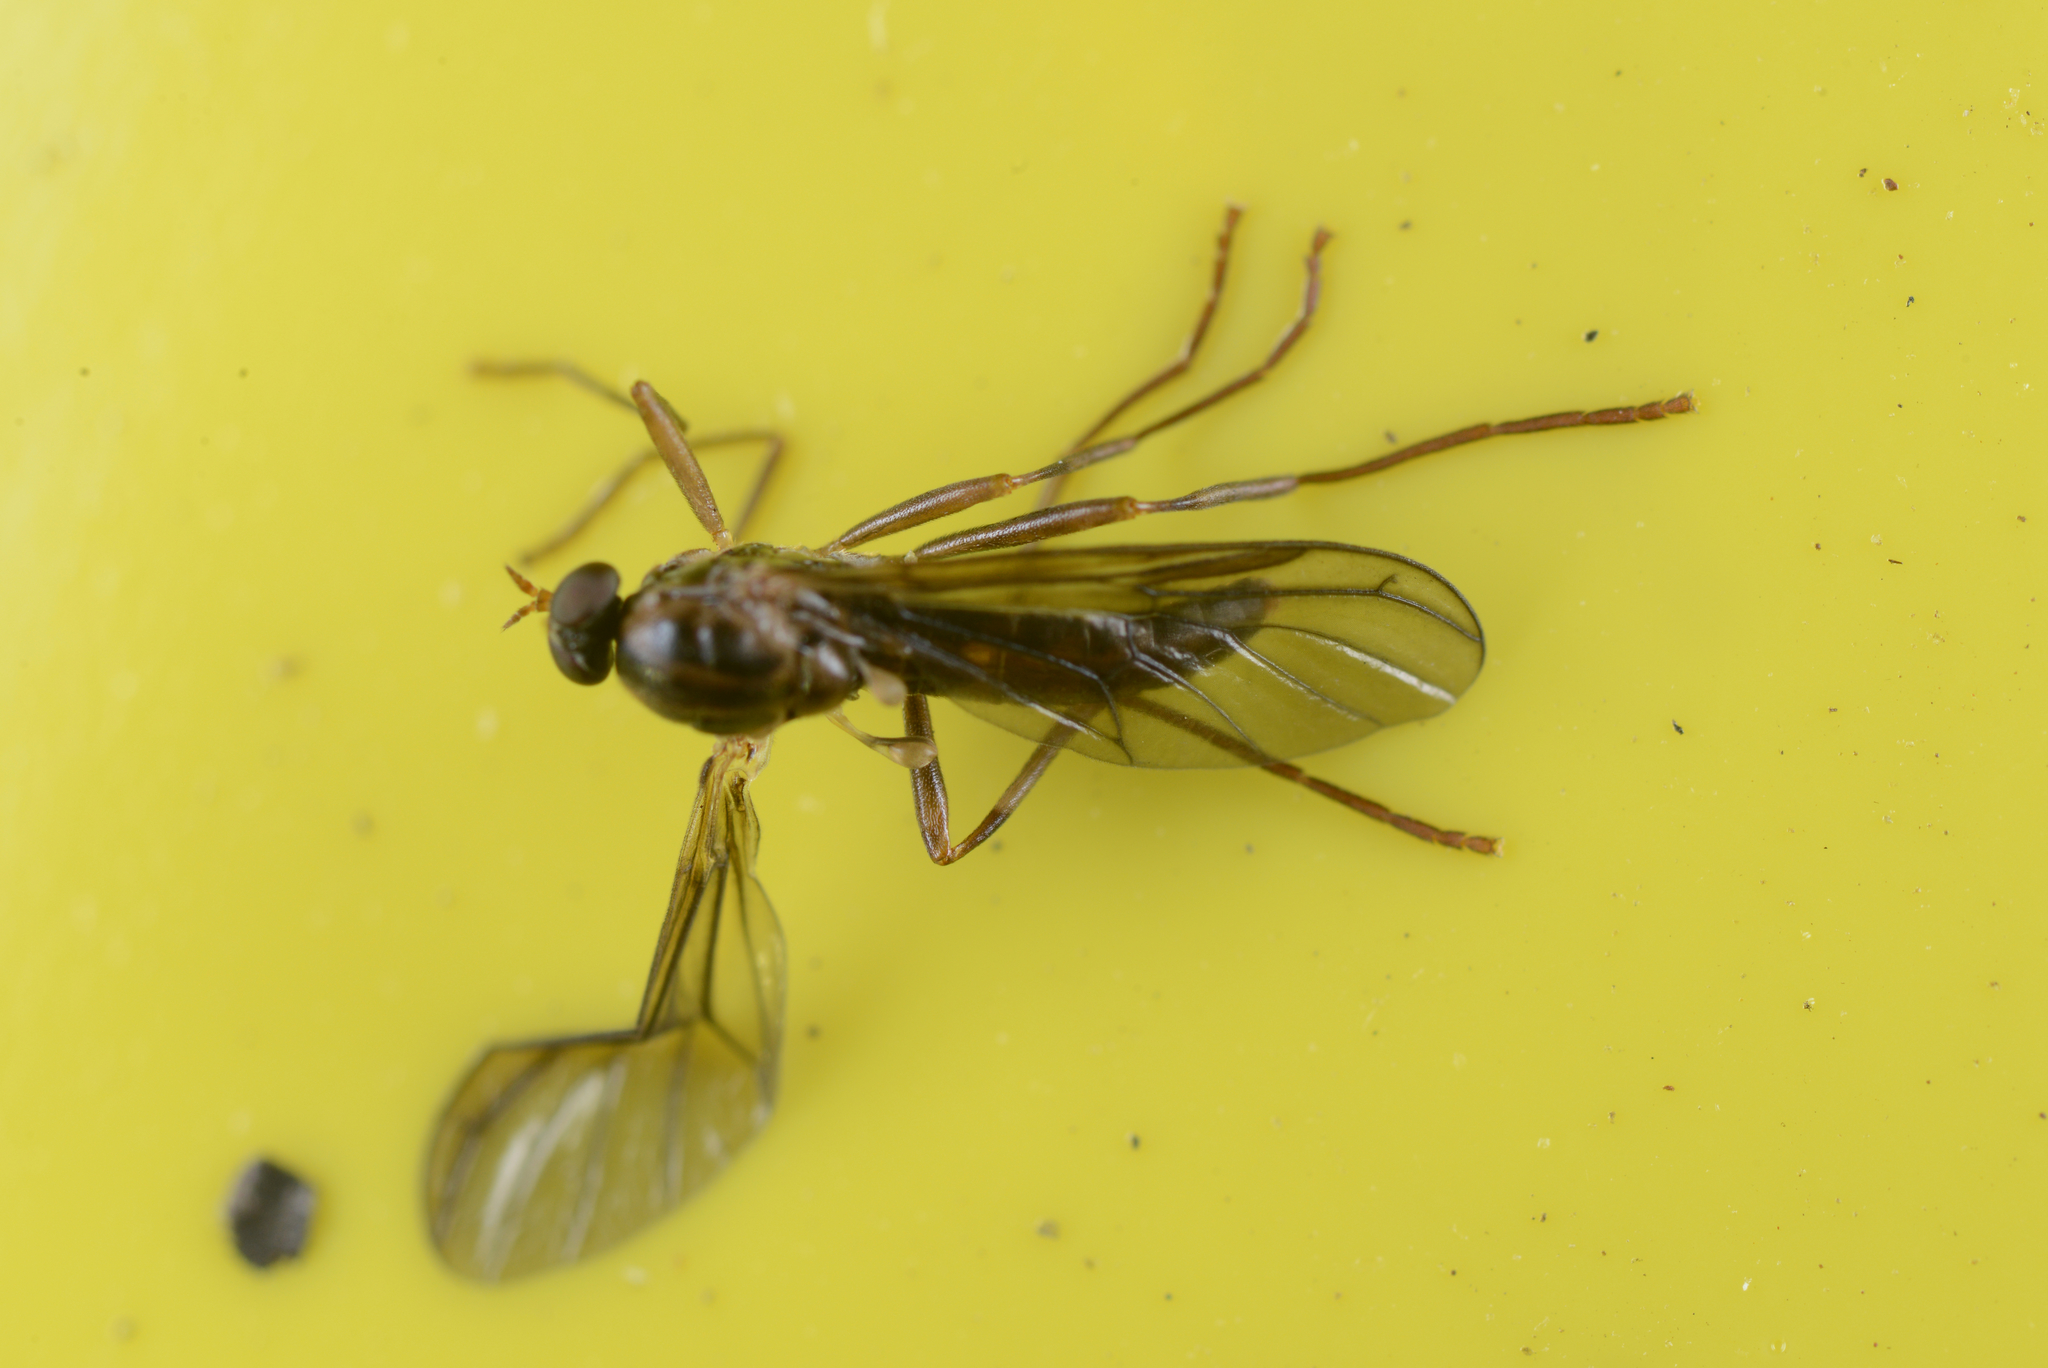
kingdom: Animalia
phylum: Arthropoda
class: Insecta
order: Diptera
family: Stratiomyidae
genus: Boreoides
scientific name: Boreoides tasmaniensis
